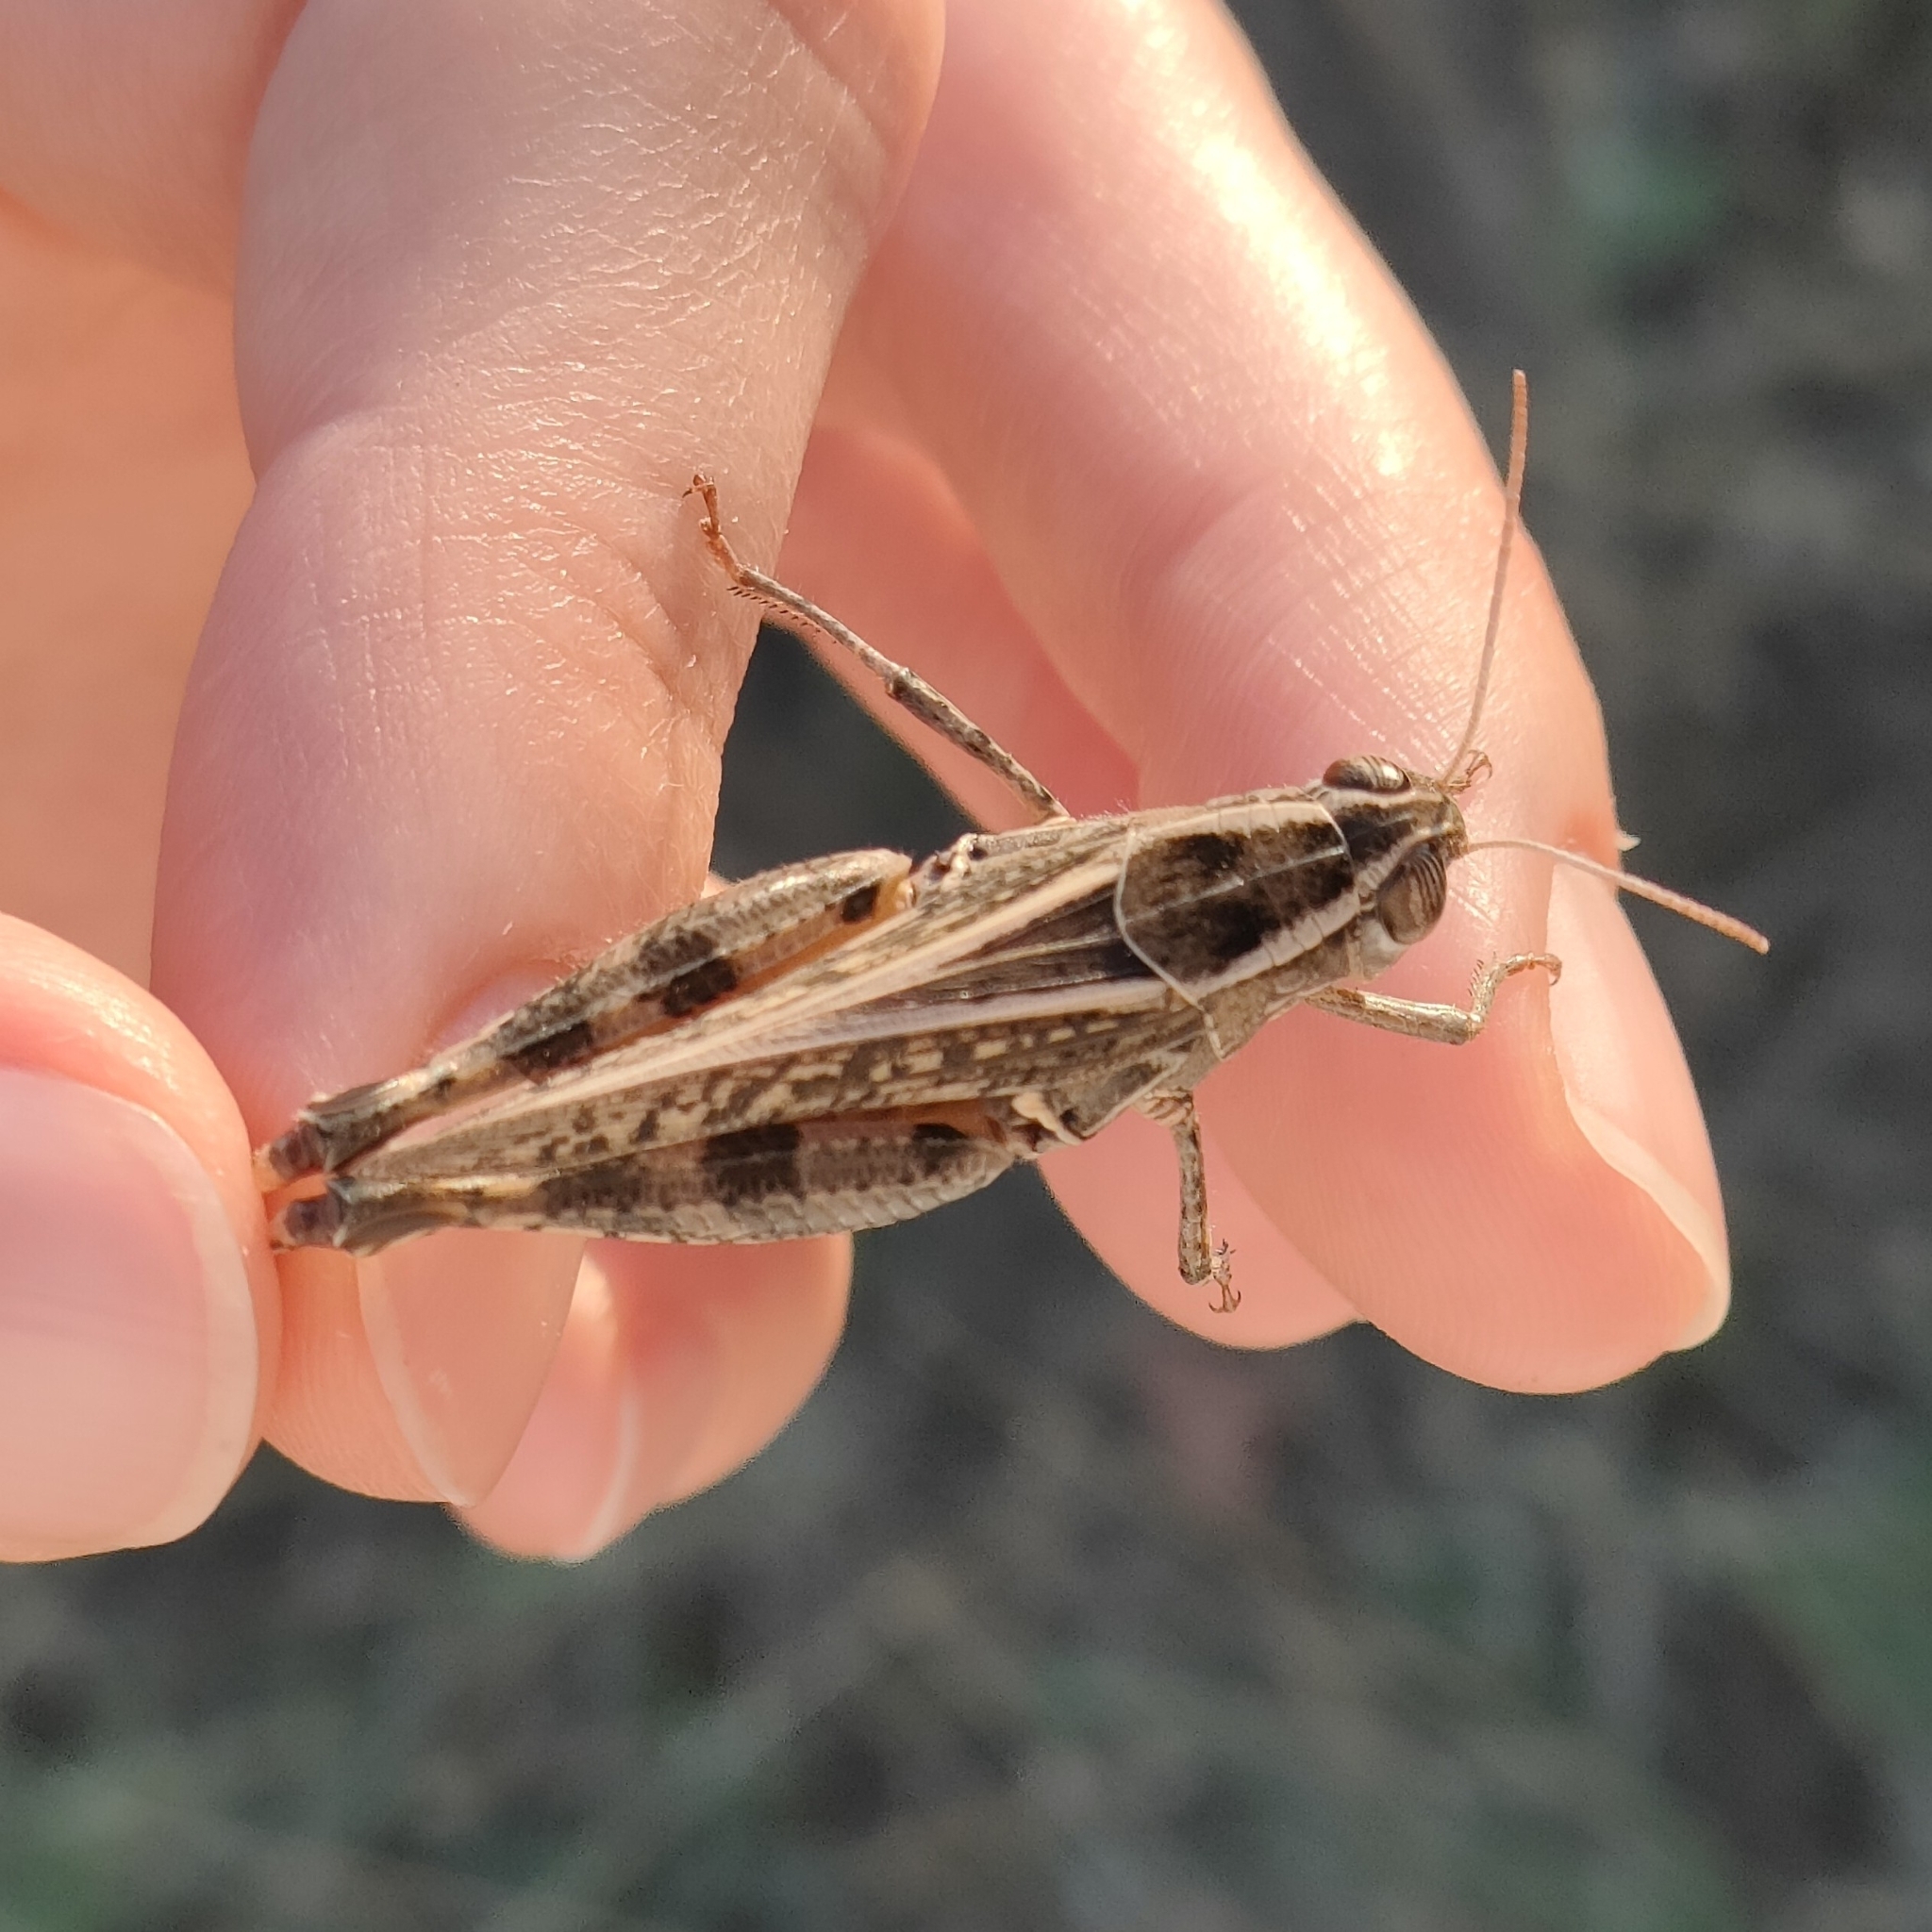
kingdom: Animalia
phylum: Arthropoda
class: Insecta
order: Orthoptera
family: Acrididae
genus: Calliptamus
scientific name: Calliptamus italicus
